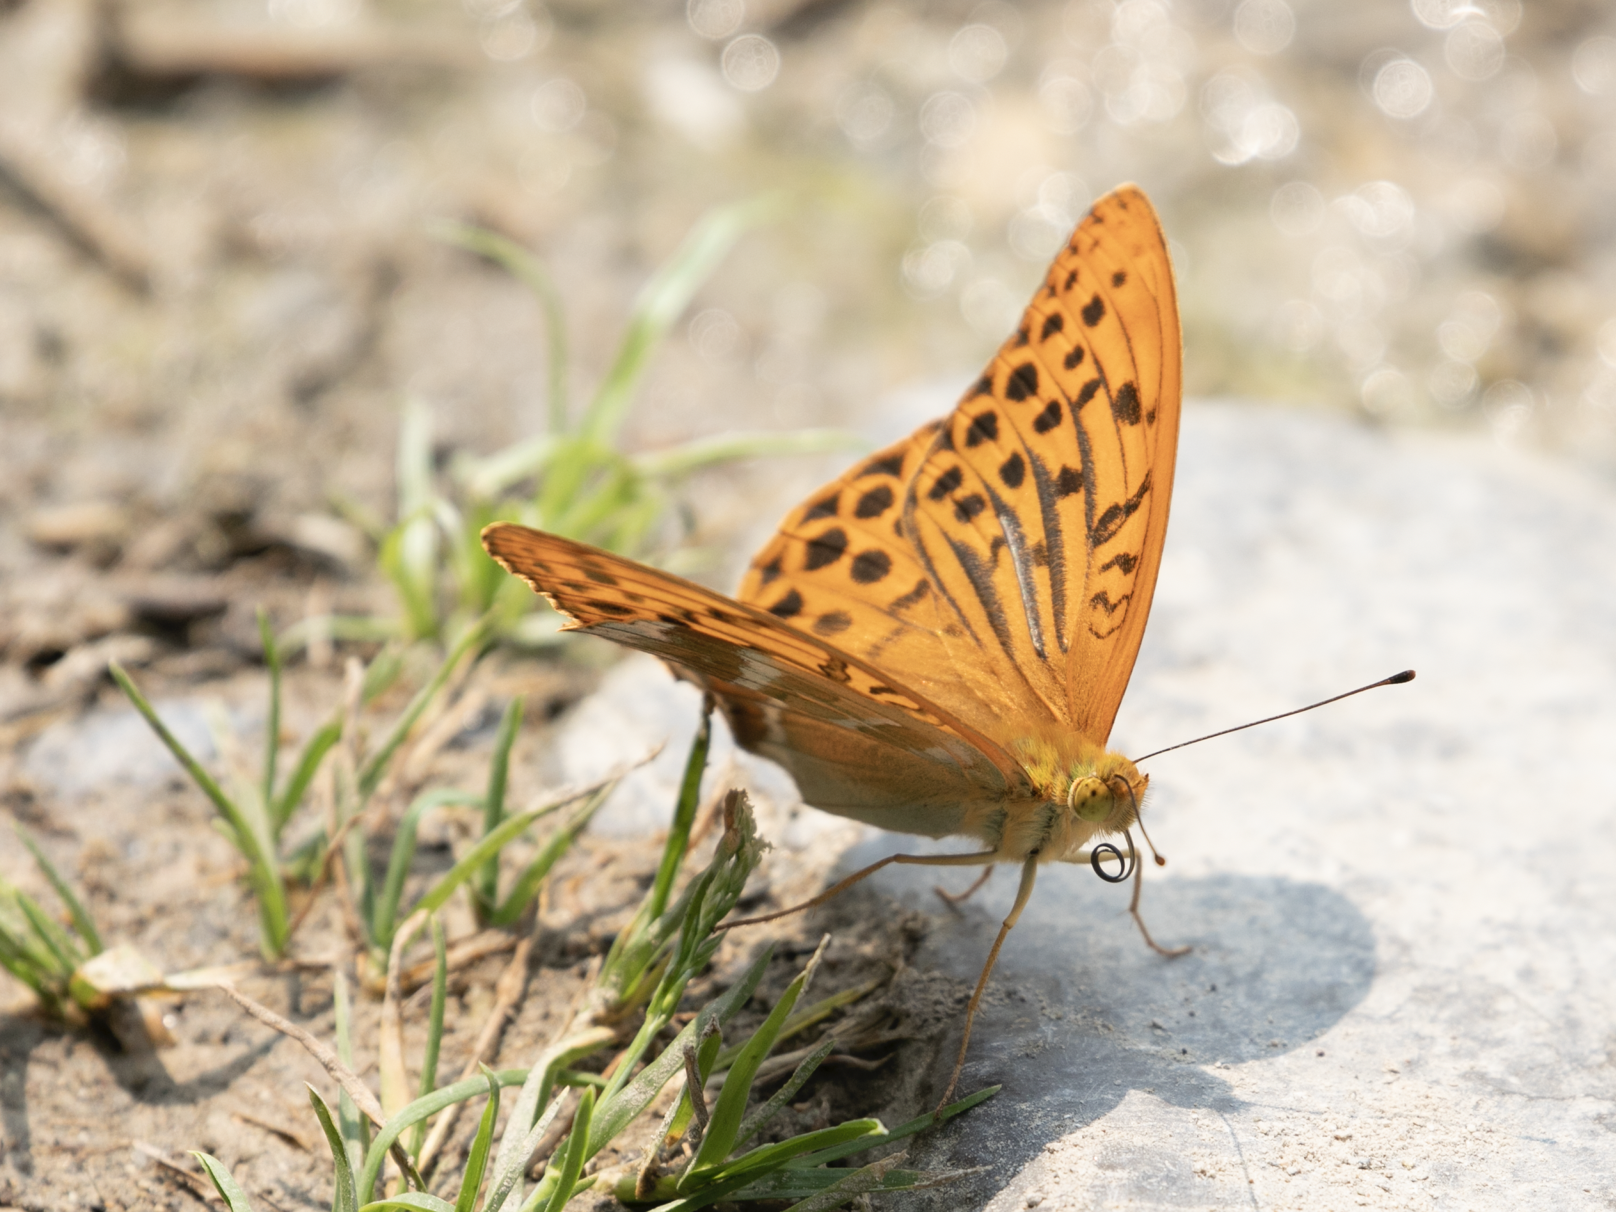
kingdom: Animalia
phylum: Arthropoda
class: Insecta
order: Lepidoptera
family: Nymphalidae
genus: Argynnis
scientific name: Argynnis paphia
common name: Silver-washed fritillary
